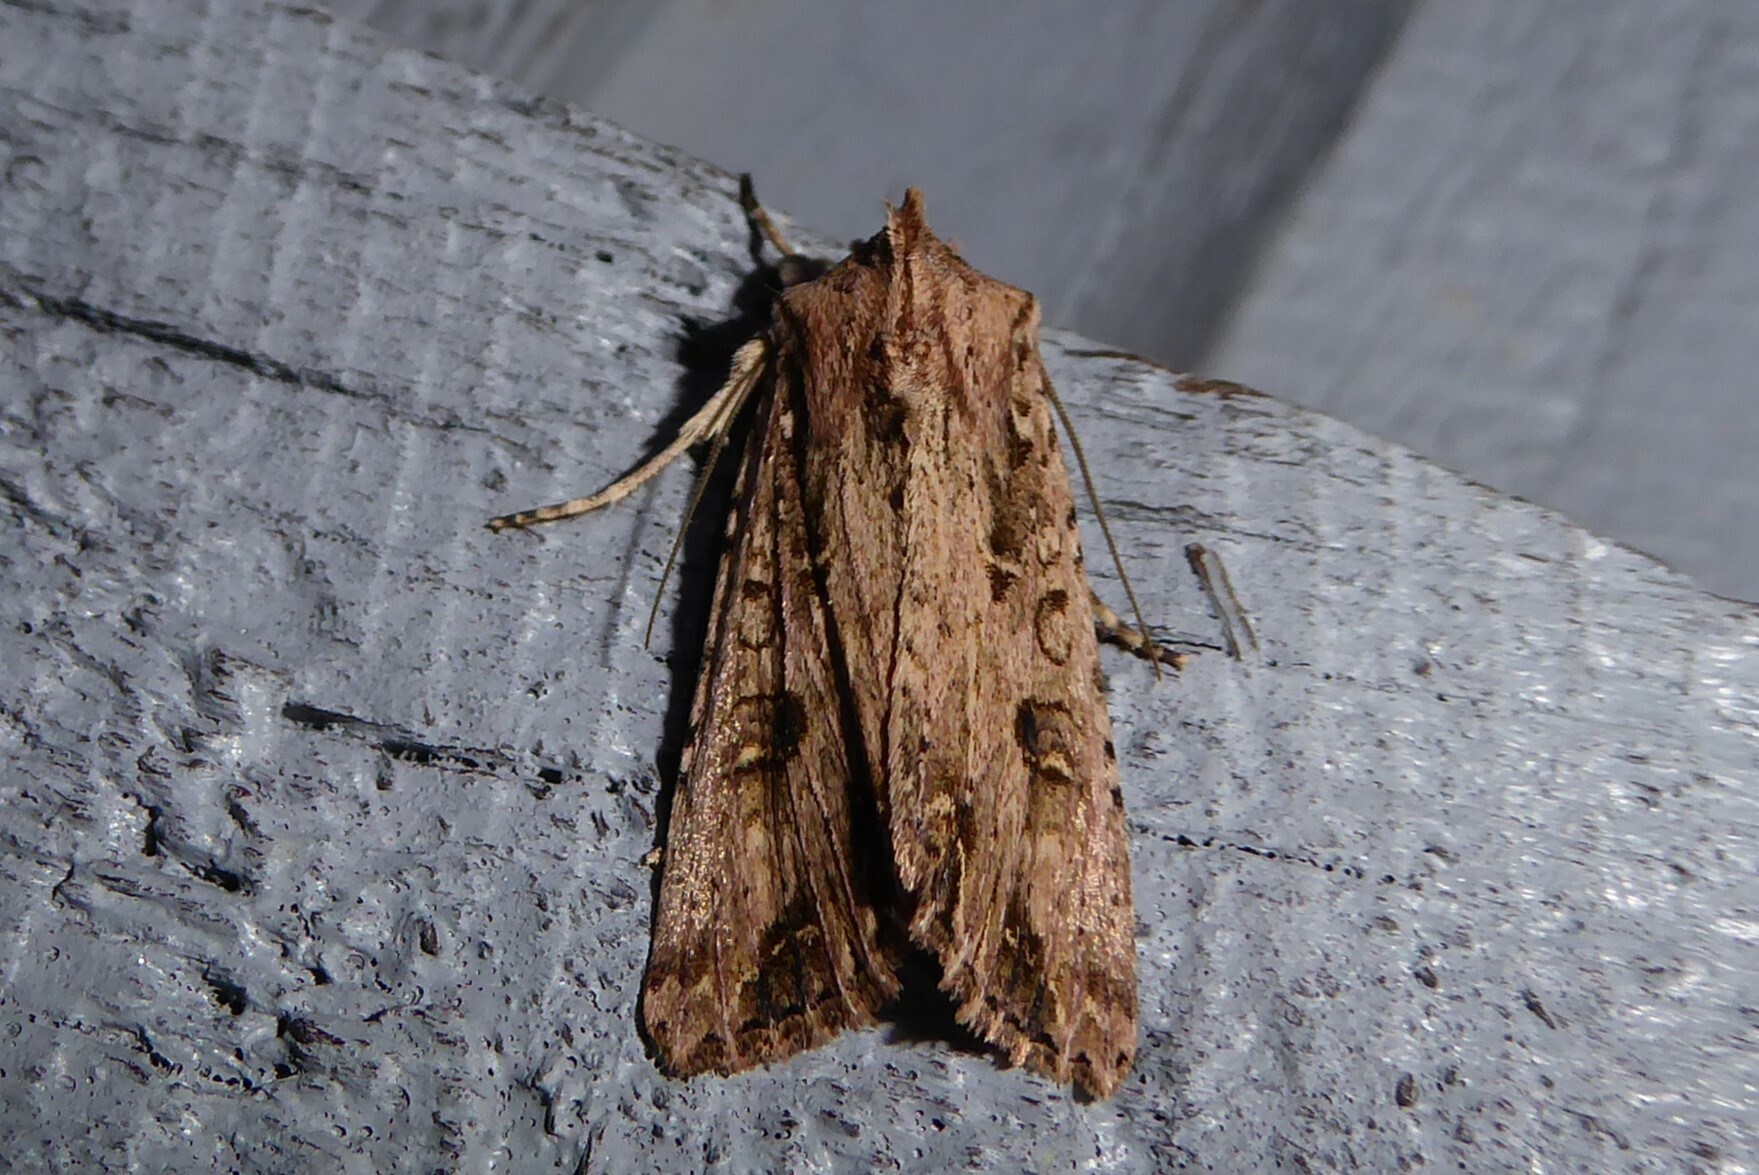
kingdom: Animalia
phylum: Arthropoda
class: Insecta
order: Lepidoptera
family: Noctuidae
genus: Ichneutica
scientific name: Ichneutica lignana
